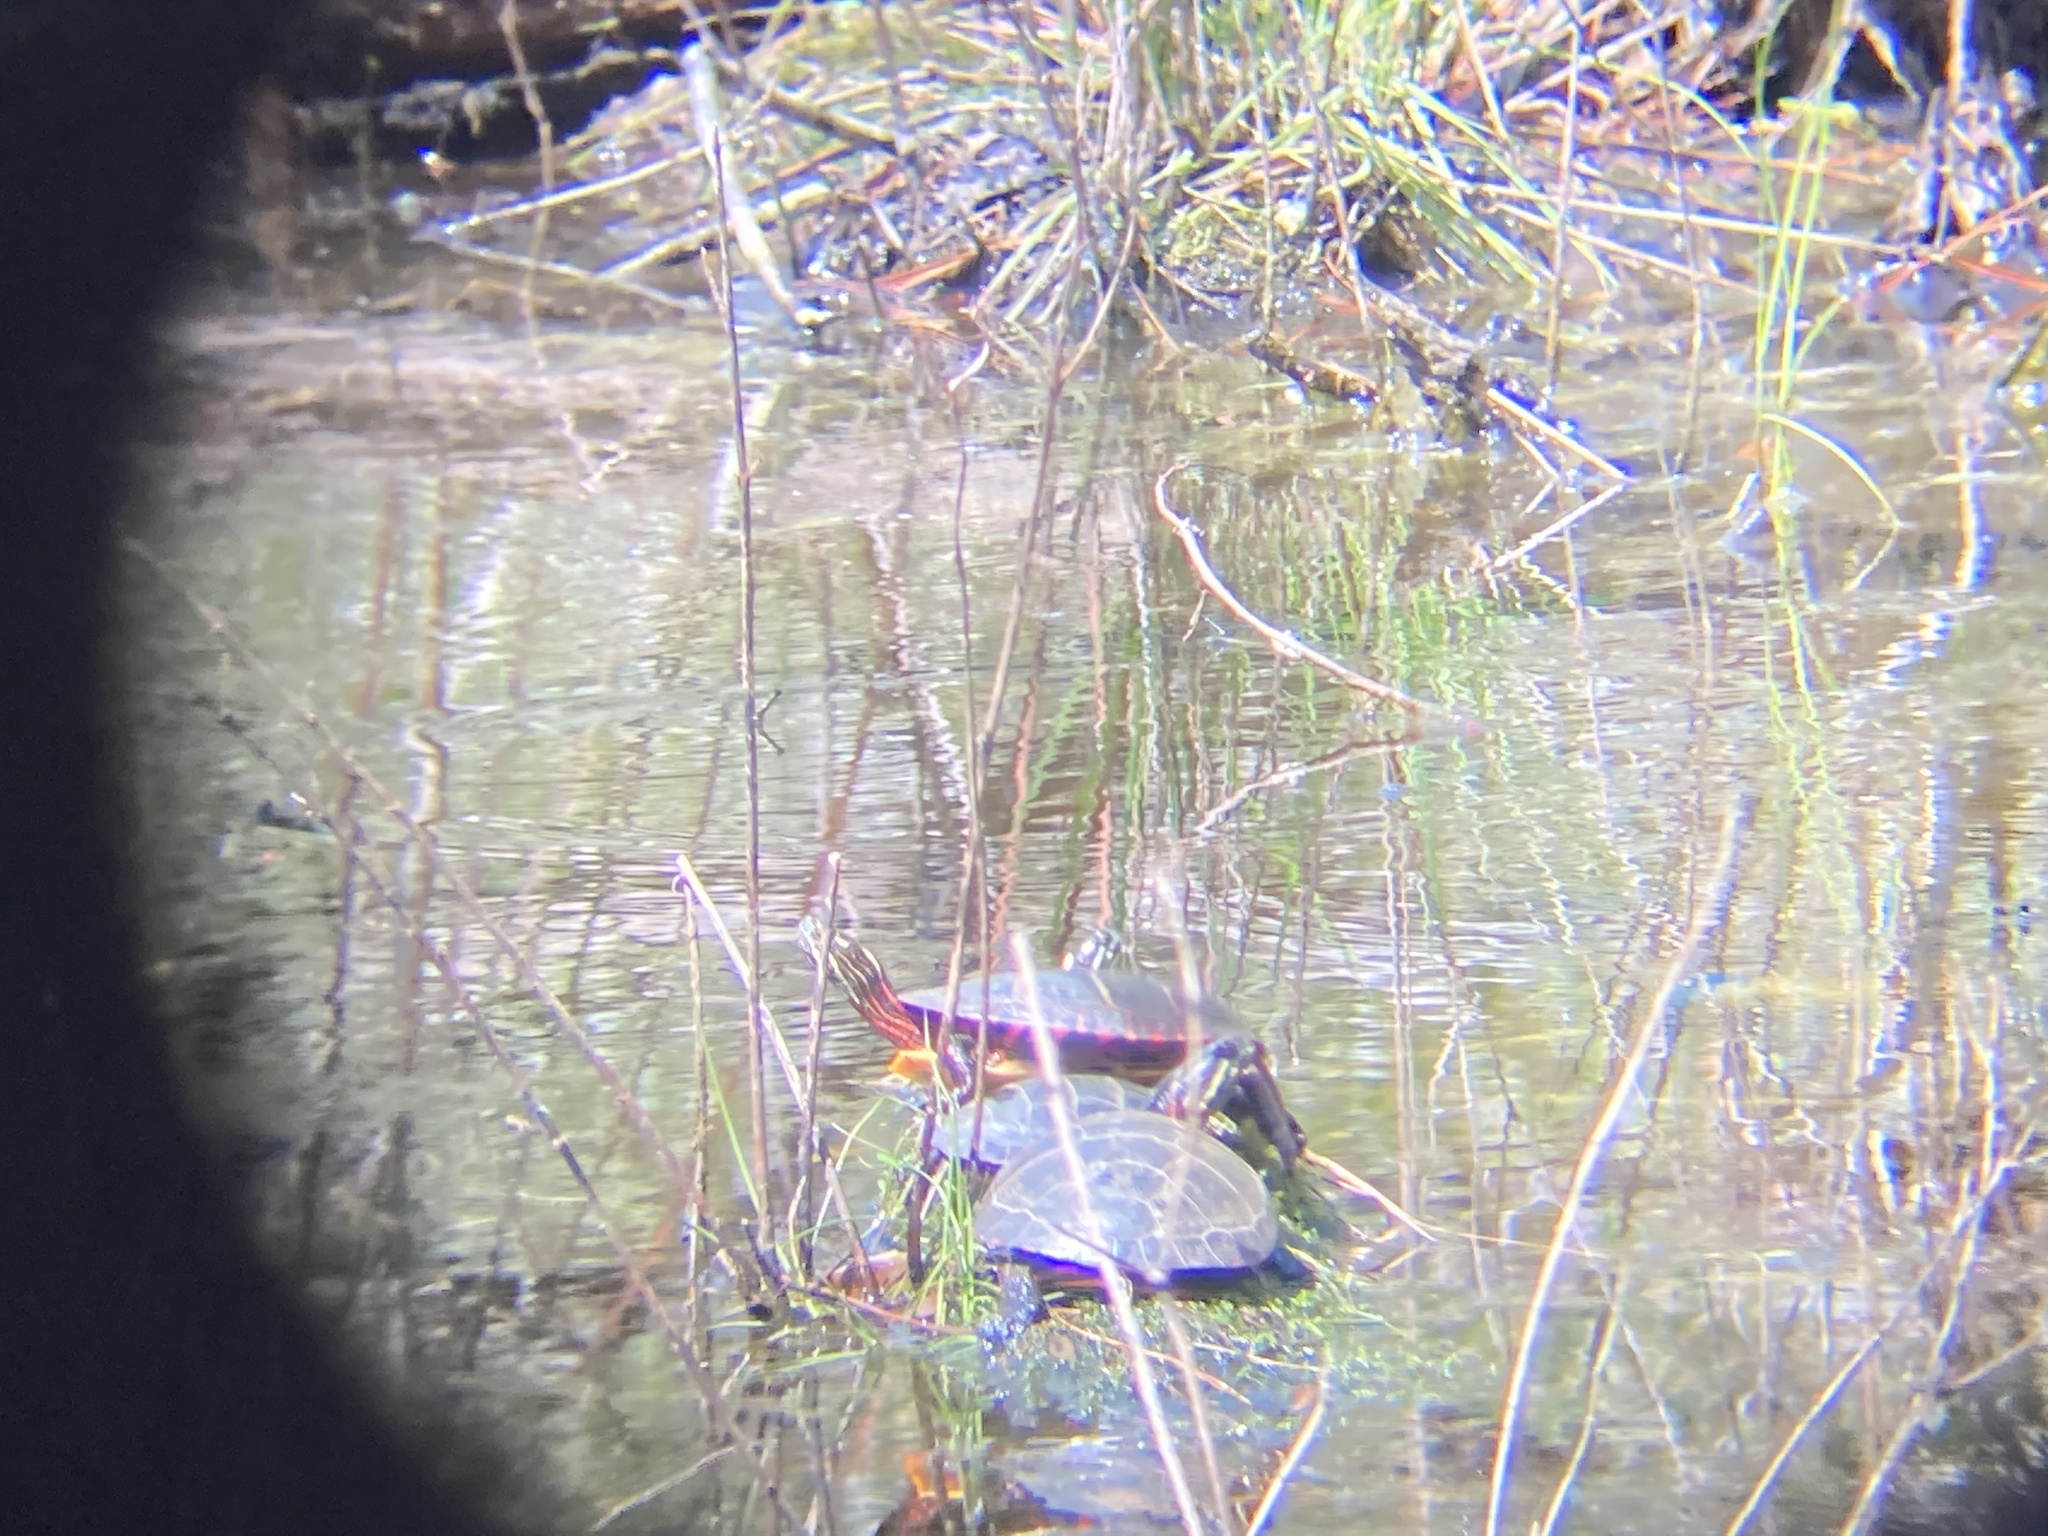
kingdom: Animalia
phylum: Chordata
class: Testudines
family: Emydidae
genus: Chrysemys
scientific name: Chrysemys picta
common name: Painted turtle
